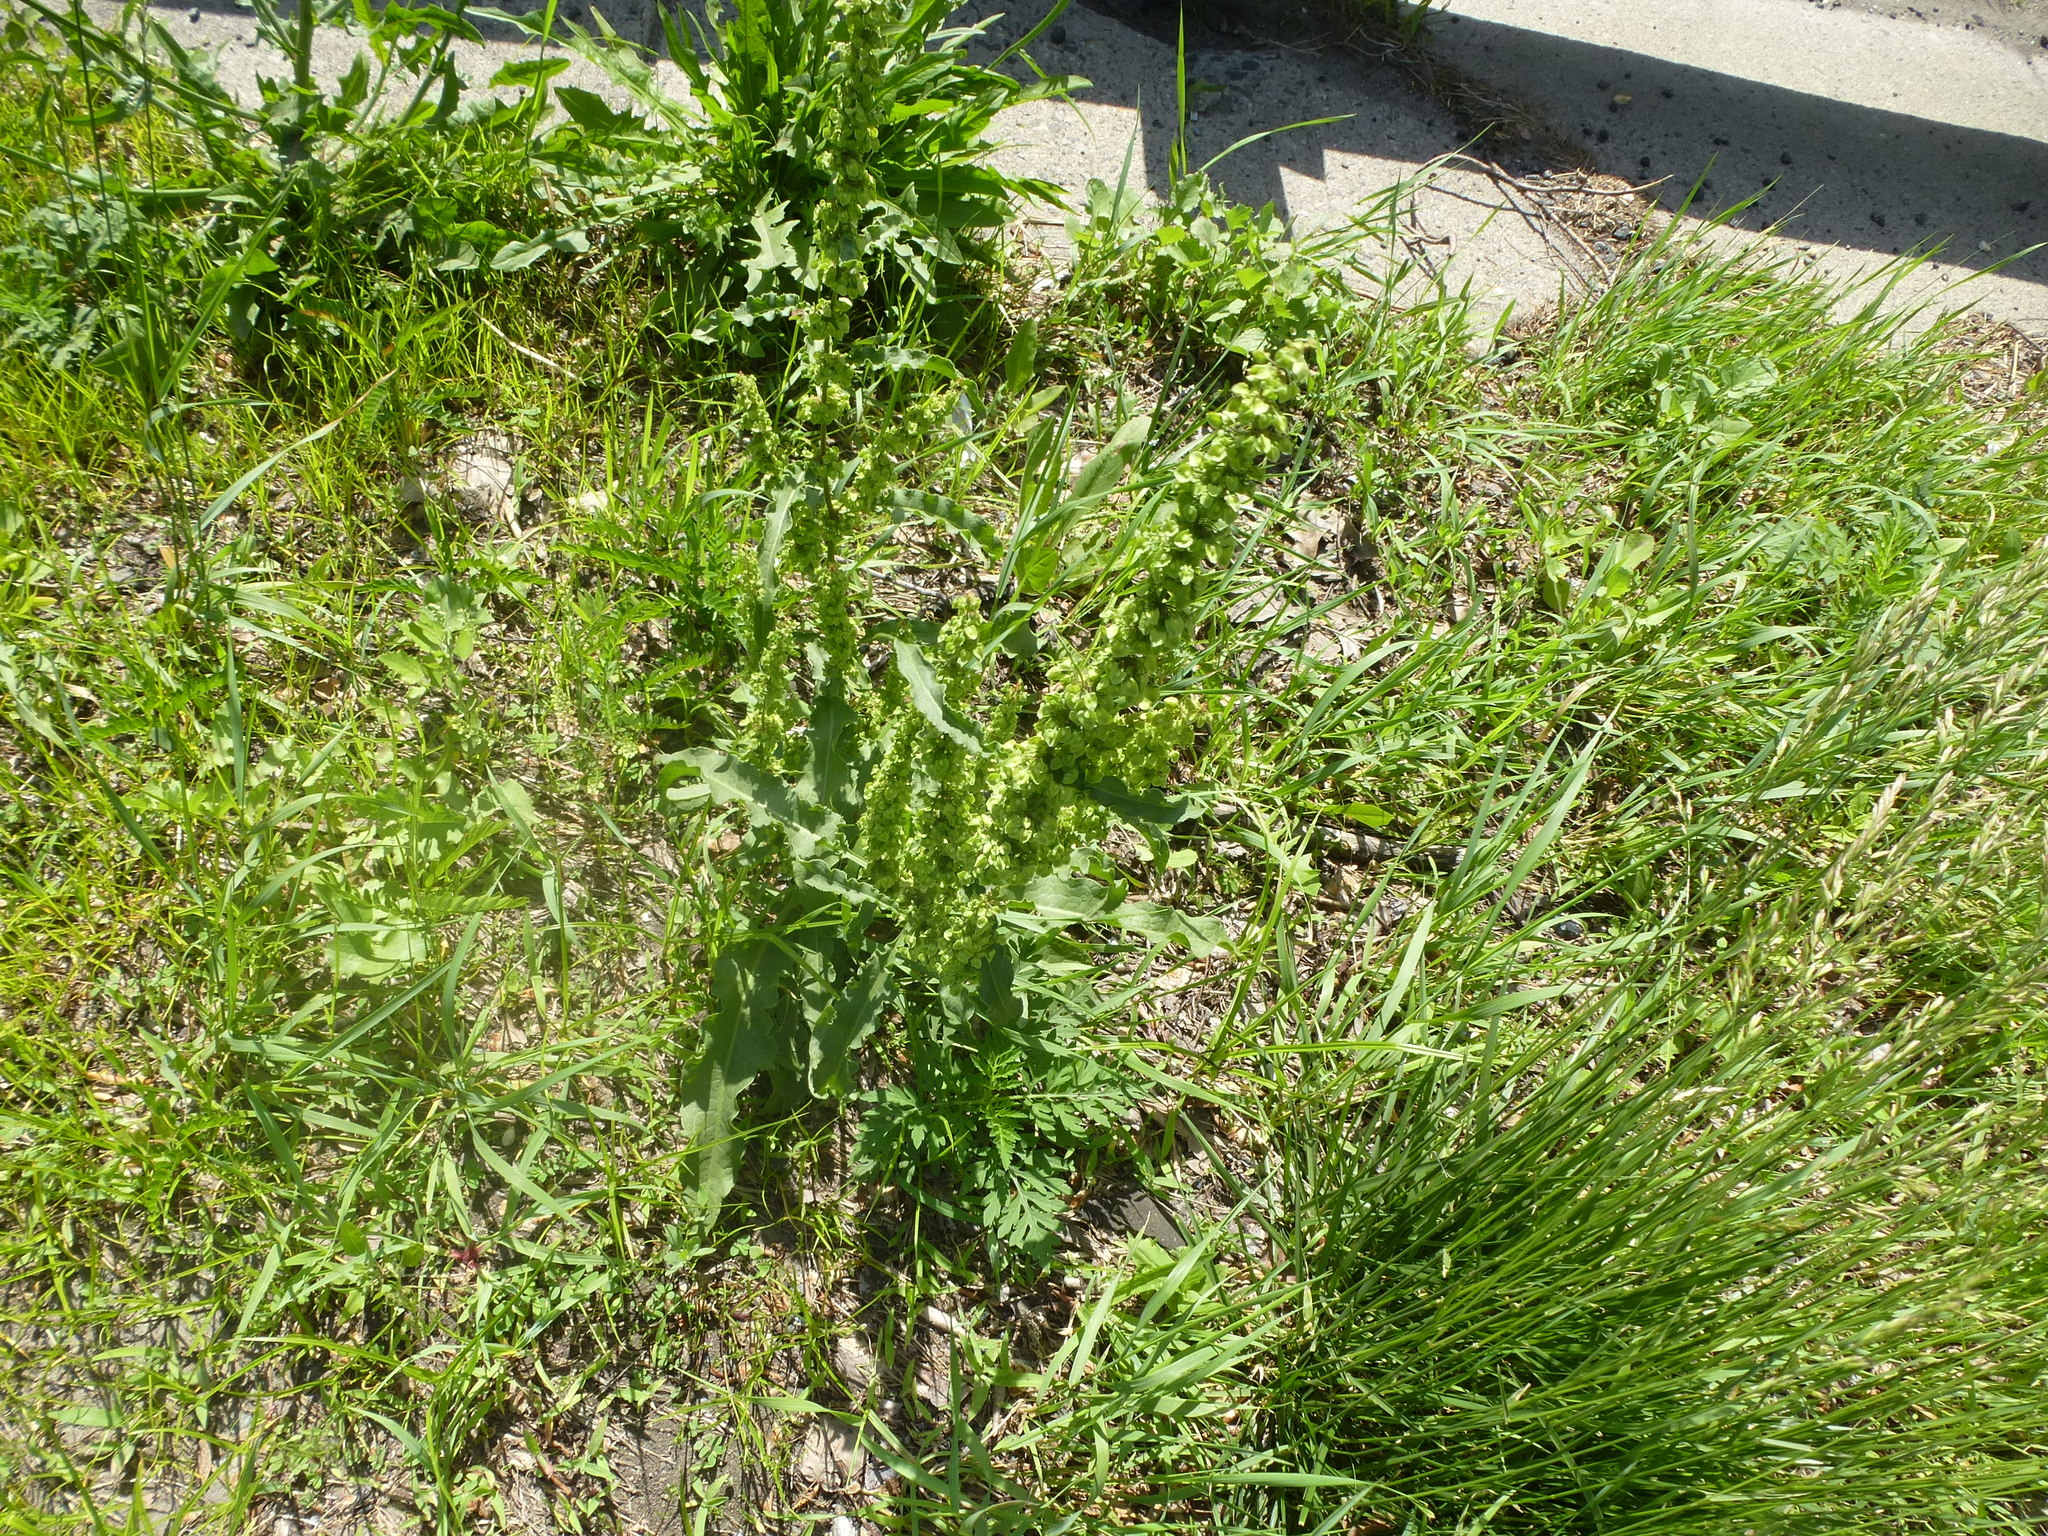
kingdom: Plantae
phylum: Tracheophyta
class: Magnoliopsida
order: Caryophyllales
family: Polygonaceae
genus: Rumex
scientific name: Rumex crispus
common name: Curled dock
